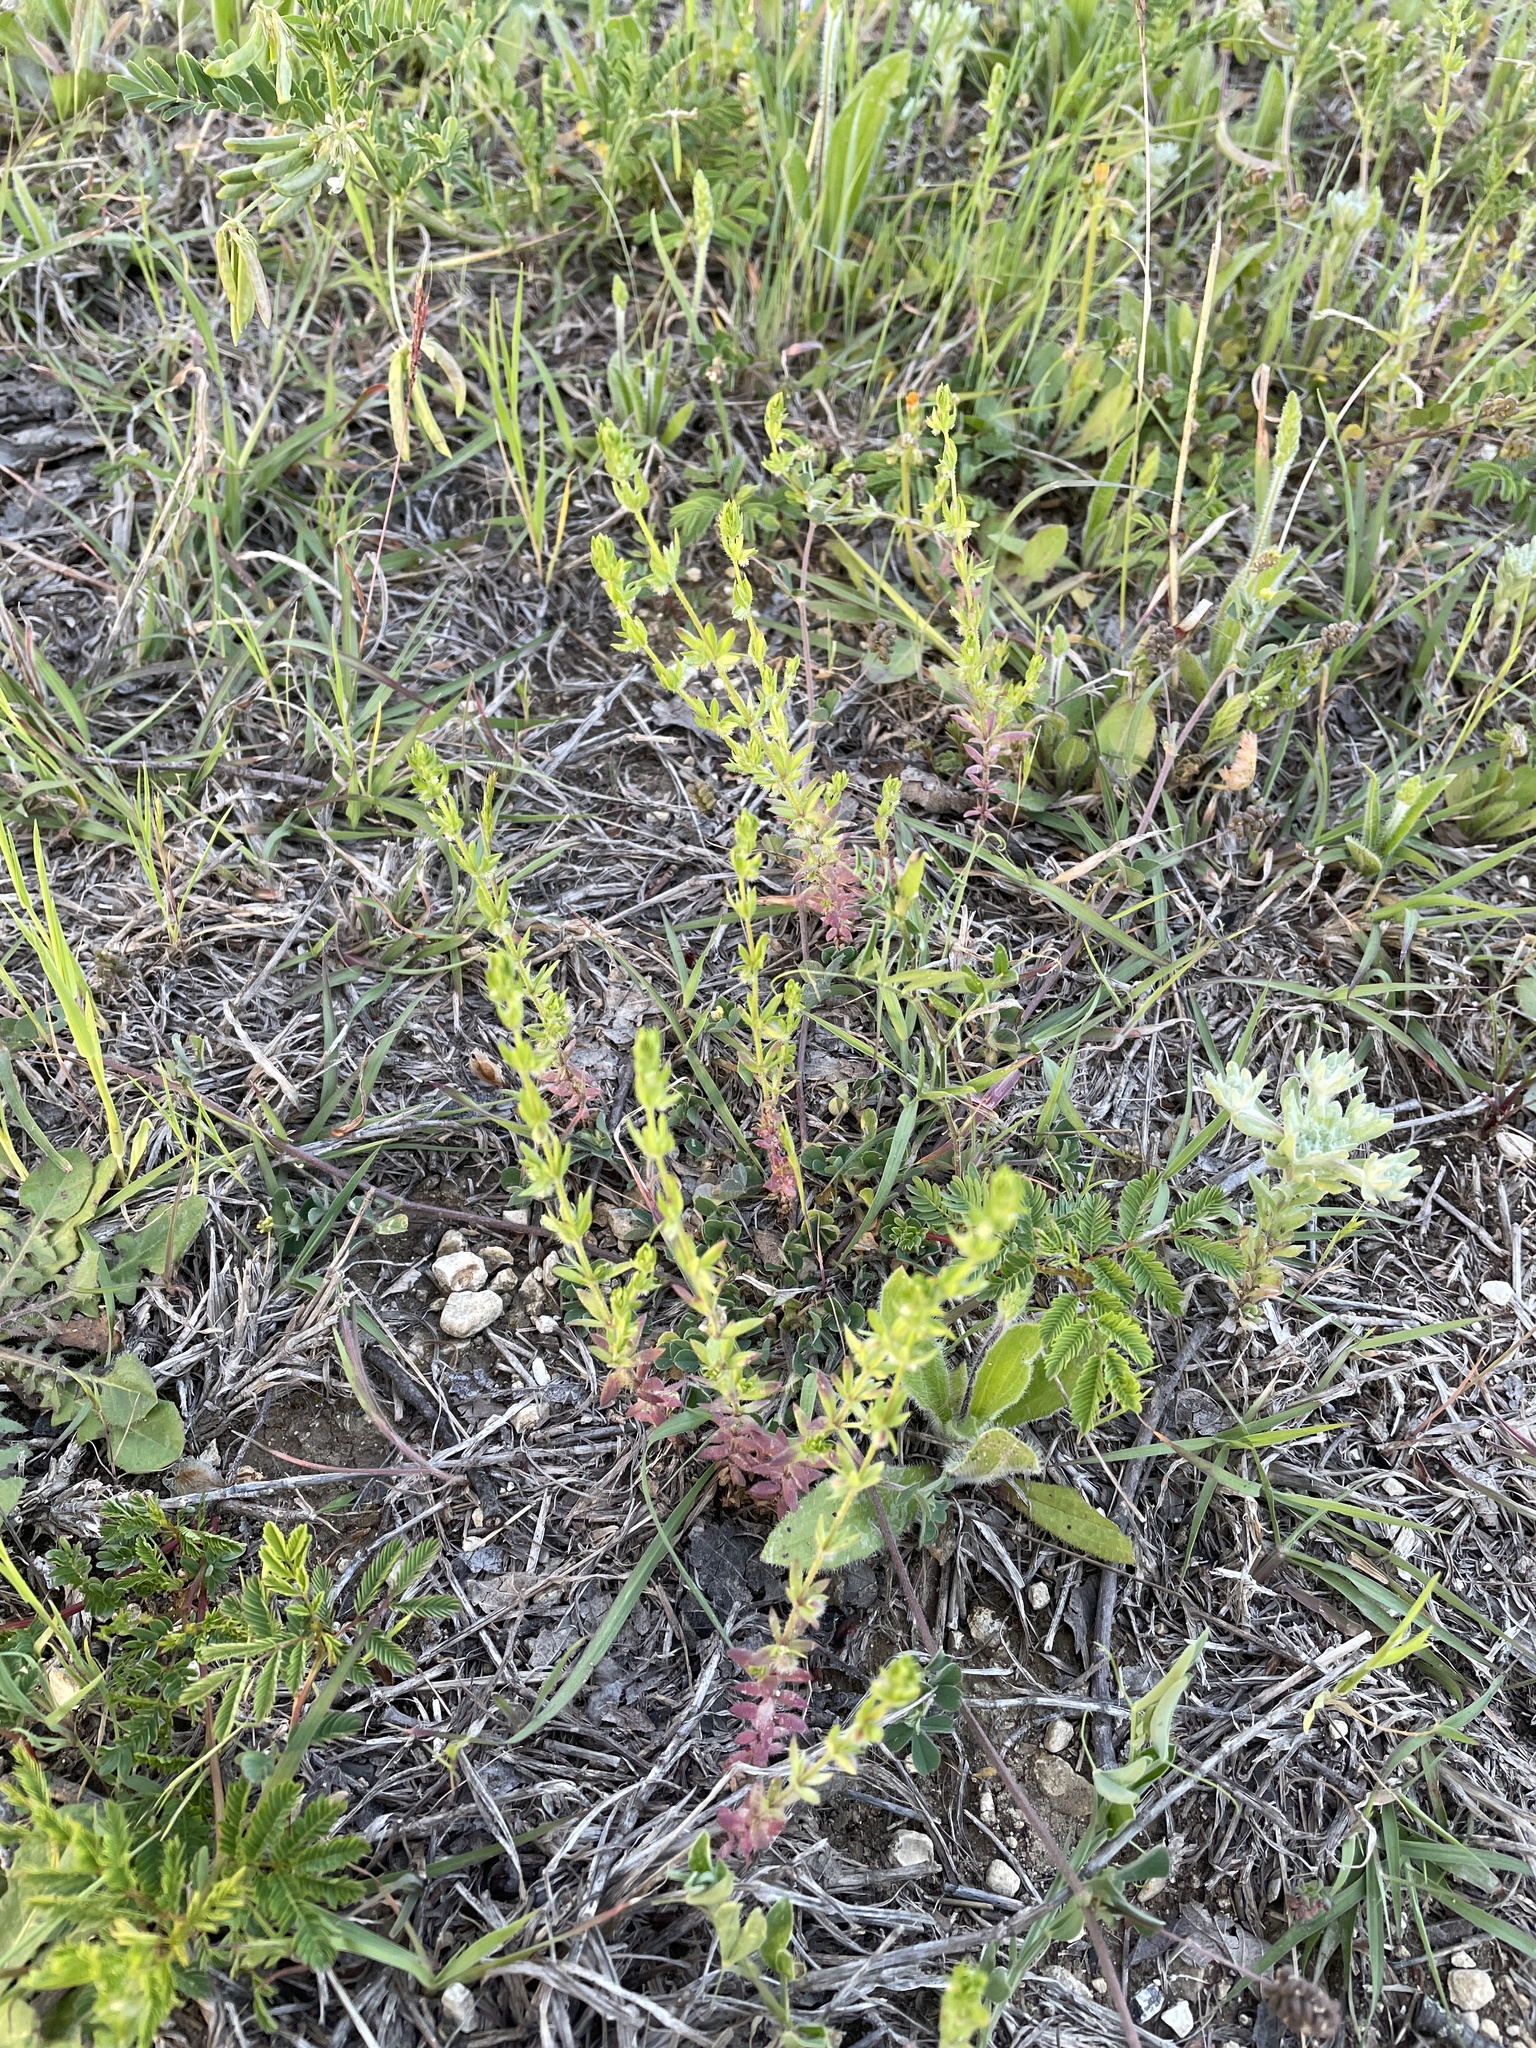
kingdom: Plantae
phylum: Tracheophyta
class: Magnoliopsida
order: Gentianales
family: Rubiaceae
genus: Galium
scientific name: Galium virgatum
